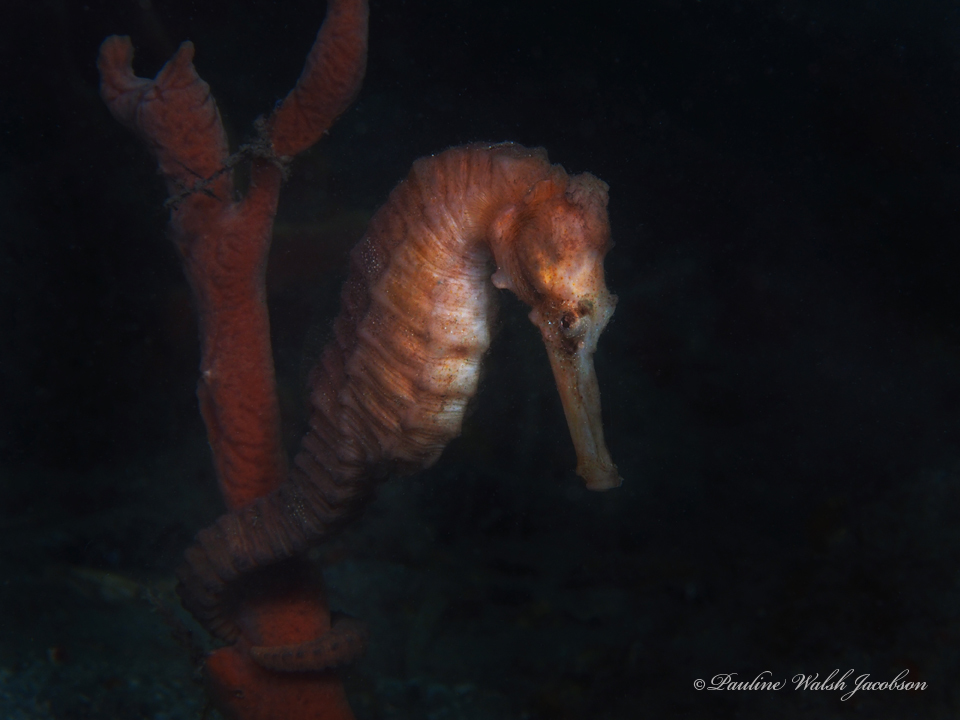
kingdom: Animalia
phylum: Chordata
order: Syngnathiformes
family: Syngnathidae
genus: Hippocampus
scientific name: Hippocampus reidi
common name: Slender seahorse
